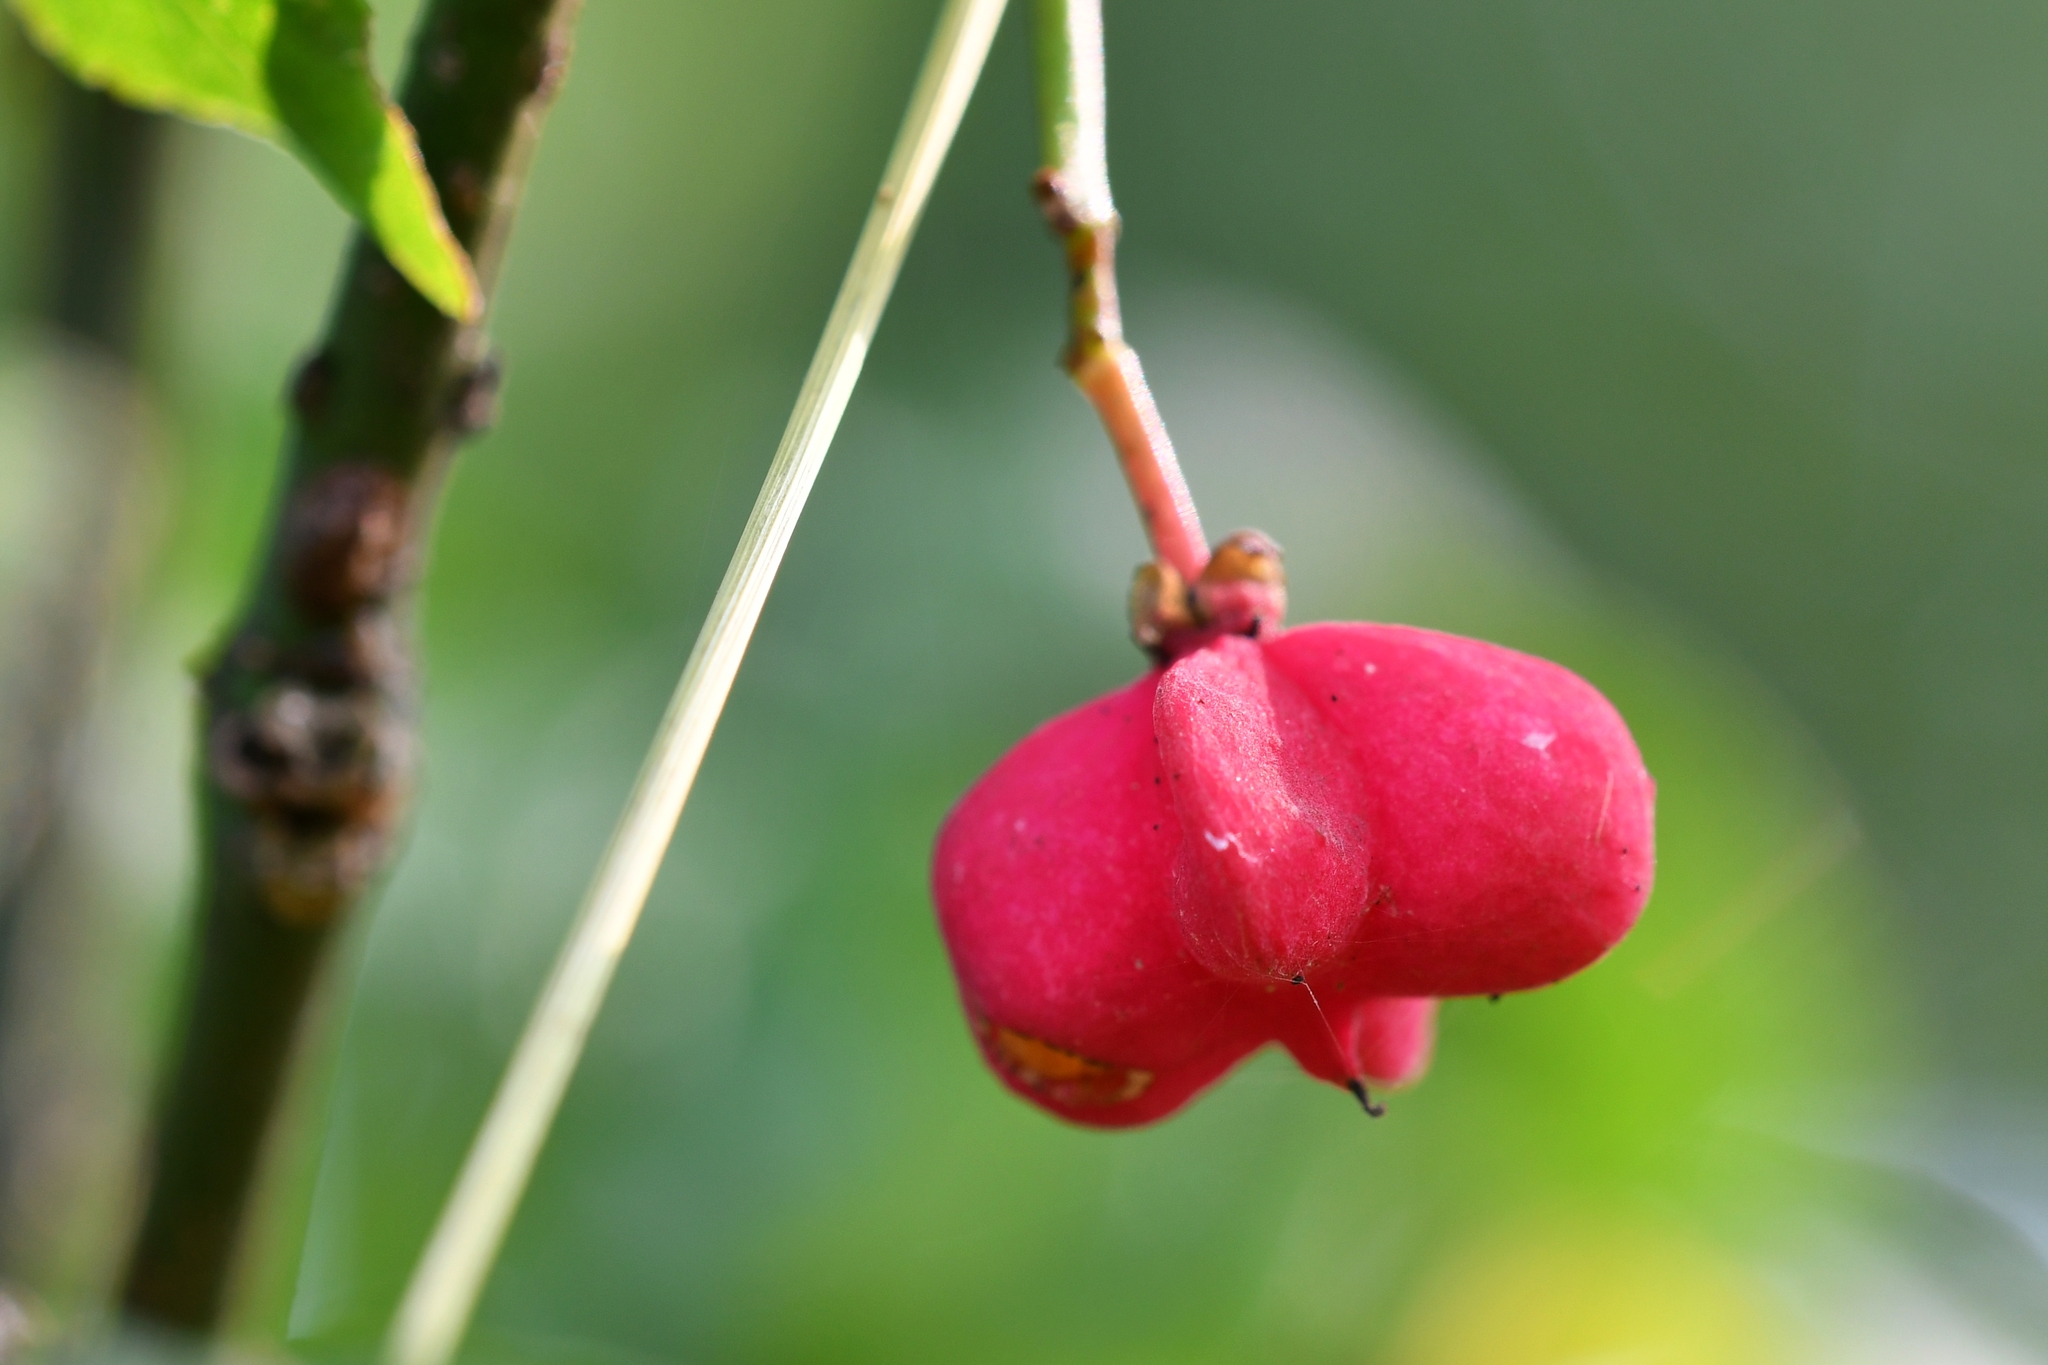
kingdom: Plantae
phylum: Tracheophyta
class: Magnoliopsida
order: Celastrales
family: Celastraceae
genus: Euonymus
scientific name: Euonymus europaeus
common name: Spindle
